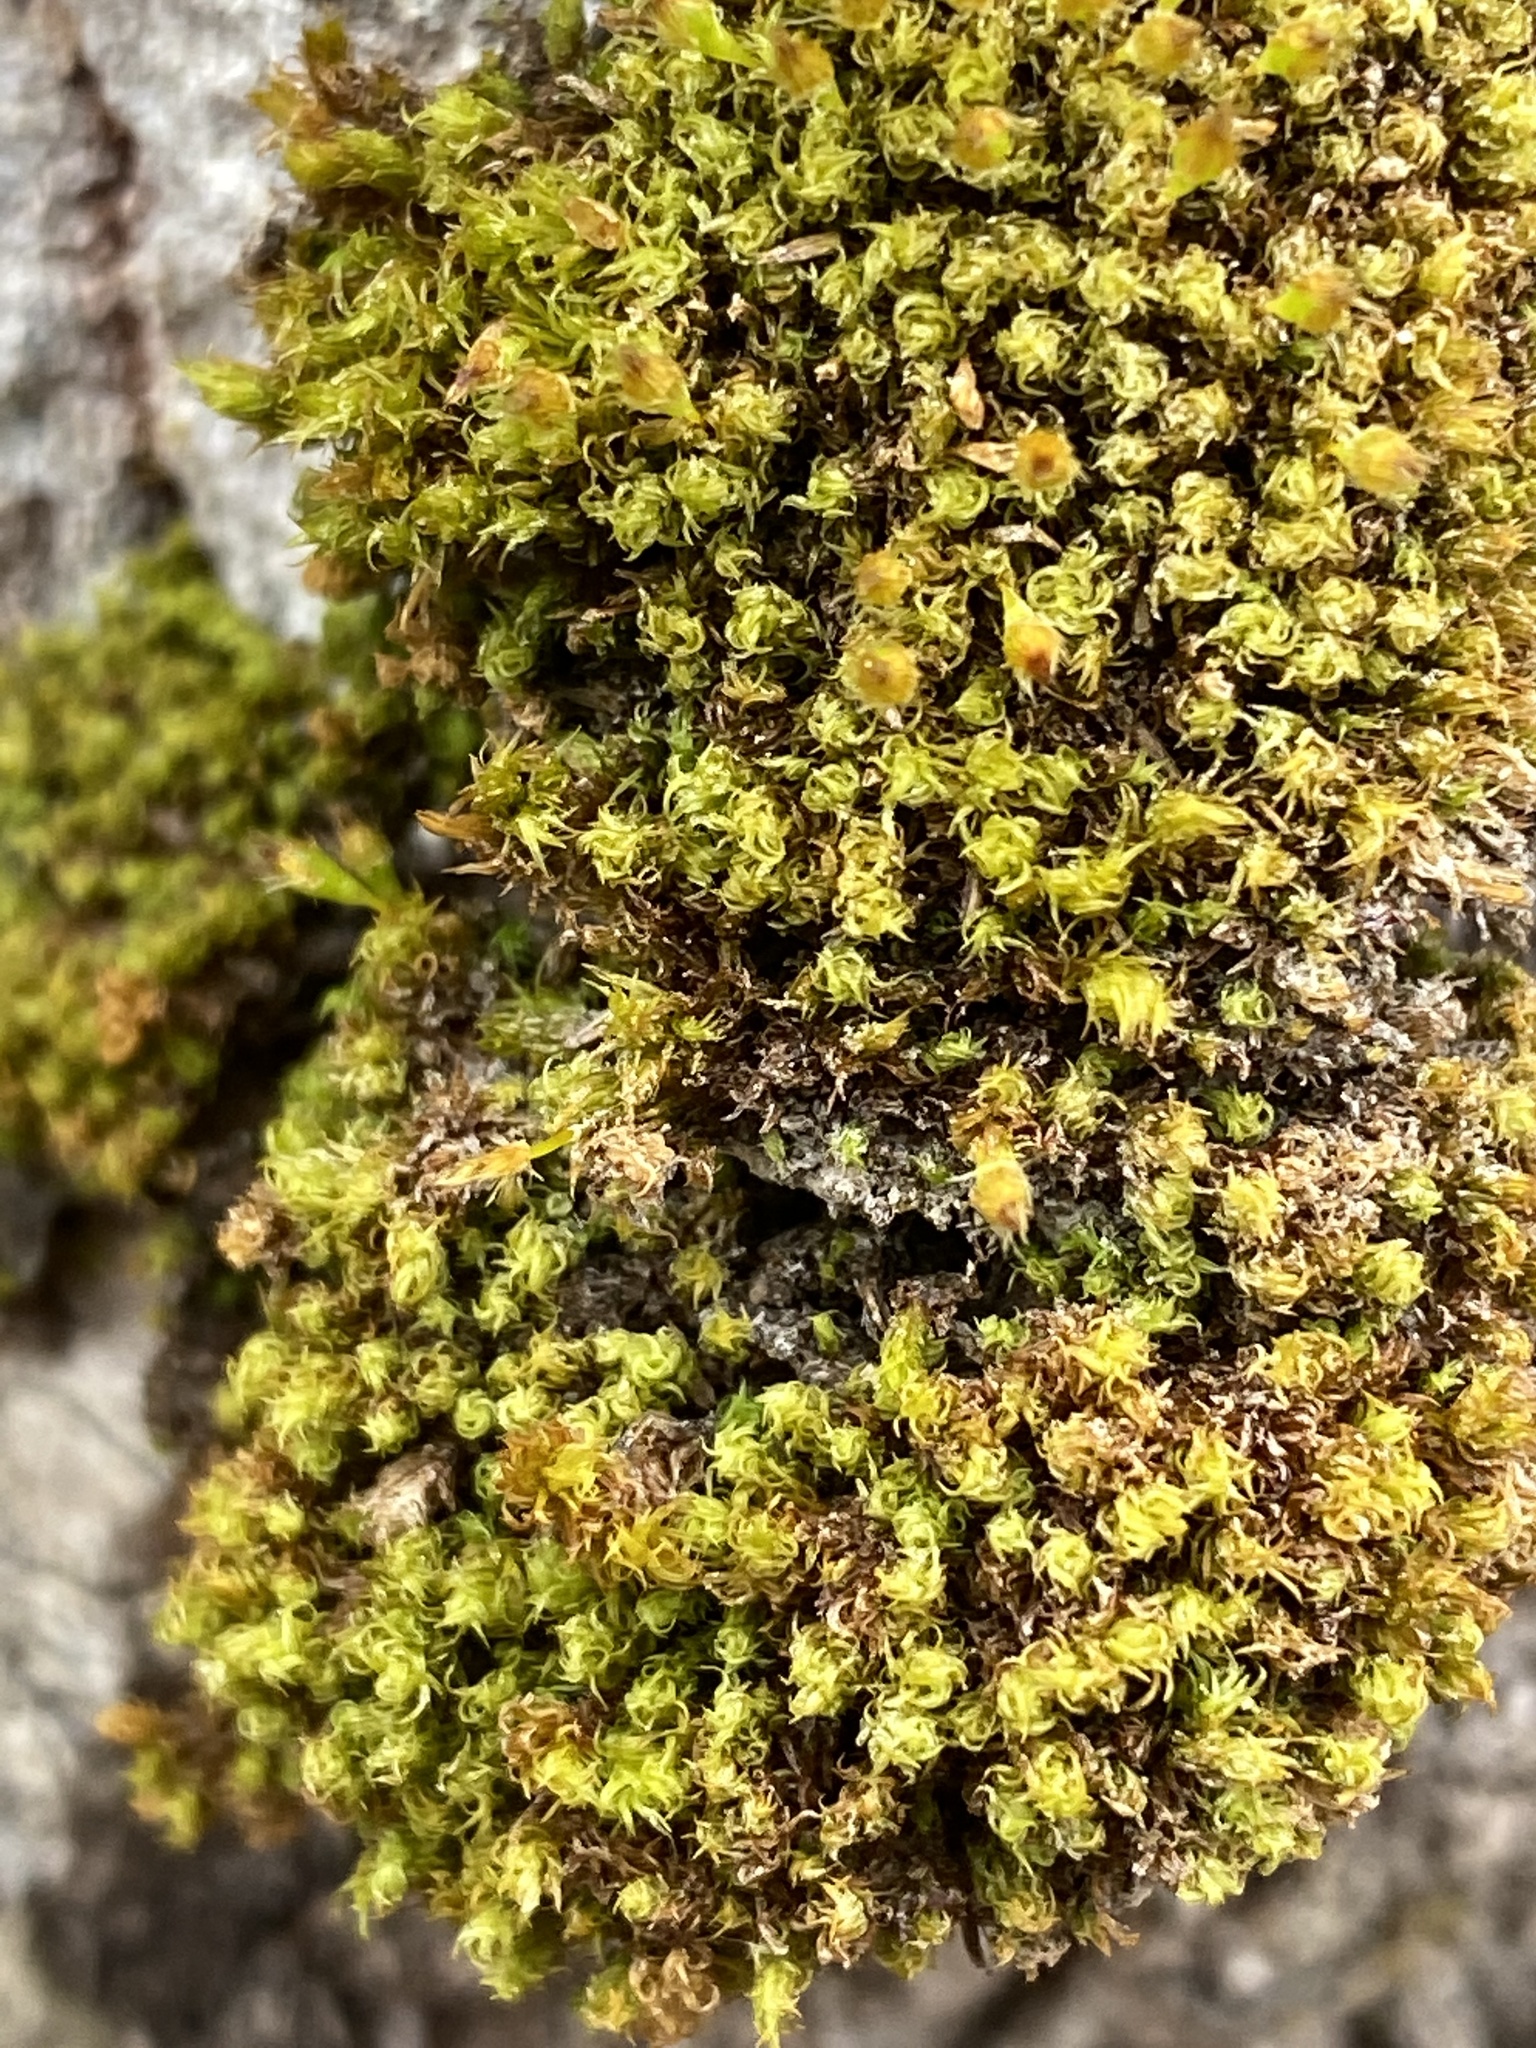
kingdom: Plantae
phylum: Bryophyta
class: Bryopsida
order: Orthotrichales
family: Orthotrichaceae
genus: Ulota
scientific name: Ulota crispa
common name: Crisped pincushion moss
